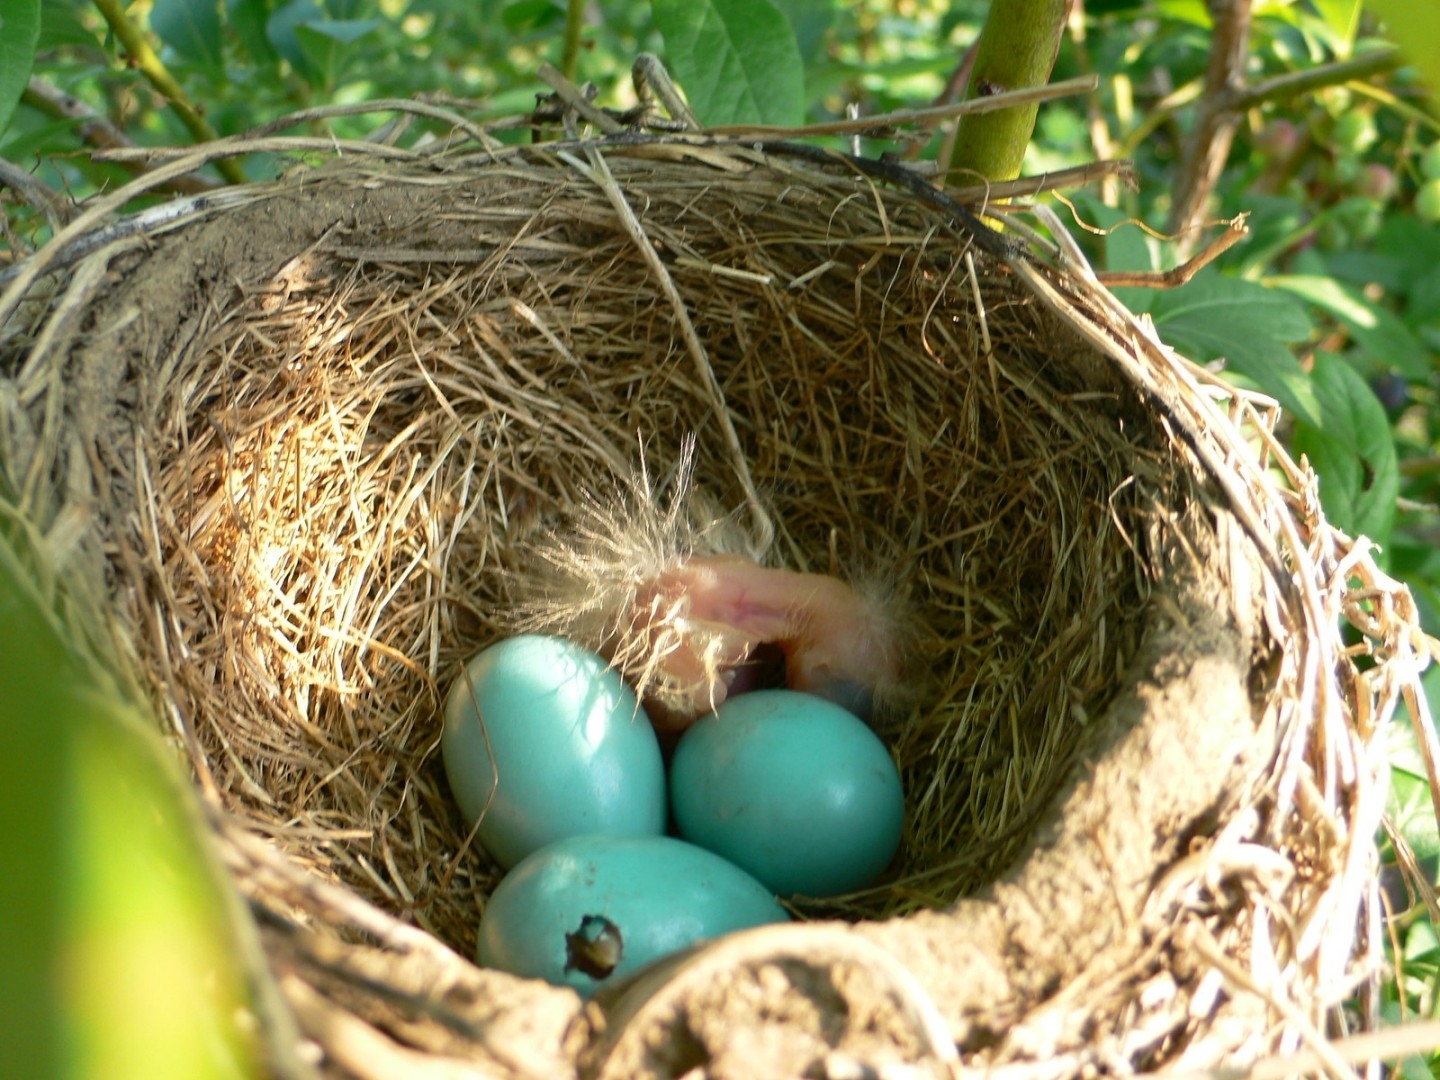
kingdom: Animalia
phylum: Chordata
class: Aves
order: Passeriformes
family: Turdidae
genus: Turdus
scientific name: Turdus migratorius
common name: American robin
